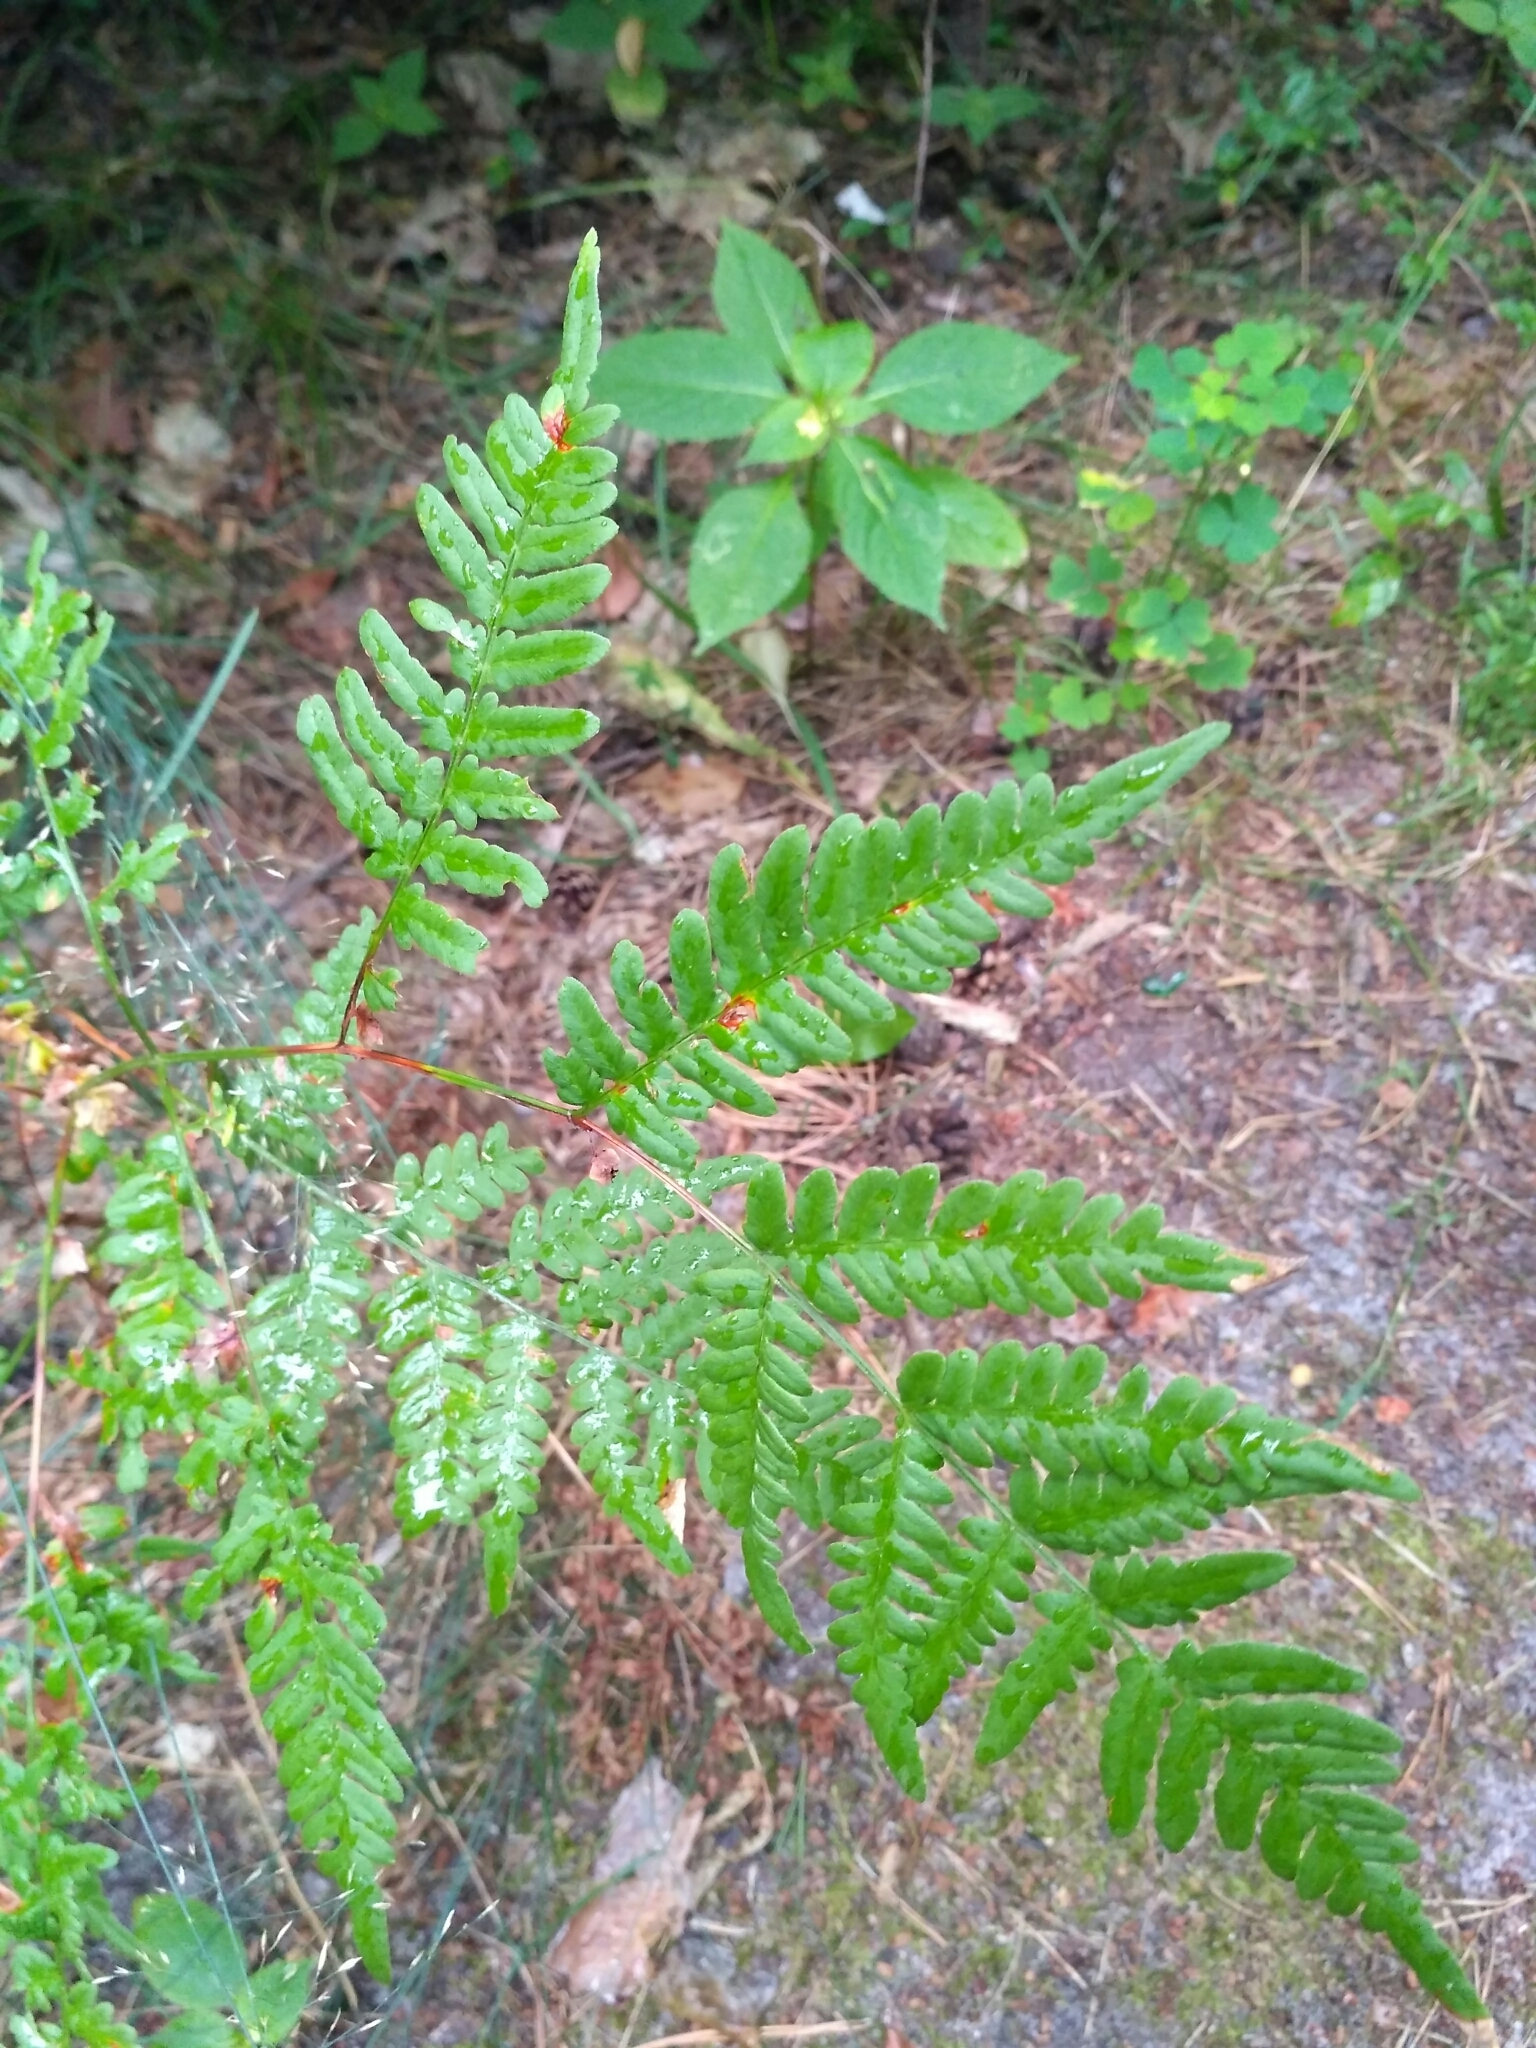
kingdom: Plantae
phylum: Tracheophyta
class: Polypodiopsida
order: Polypodiales
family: Dennstaedtiaceae
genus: Pteridium
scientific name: Pteridium aquilinum
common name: Bracken
